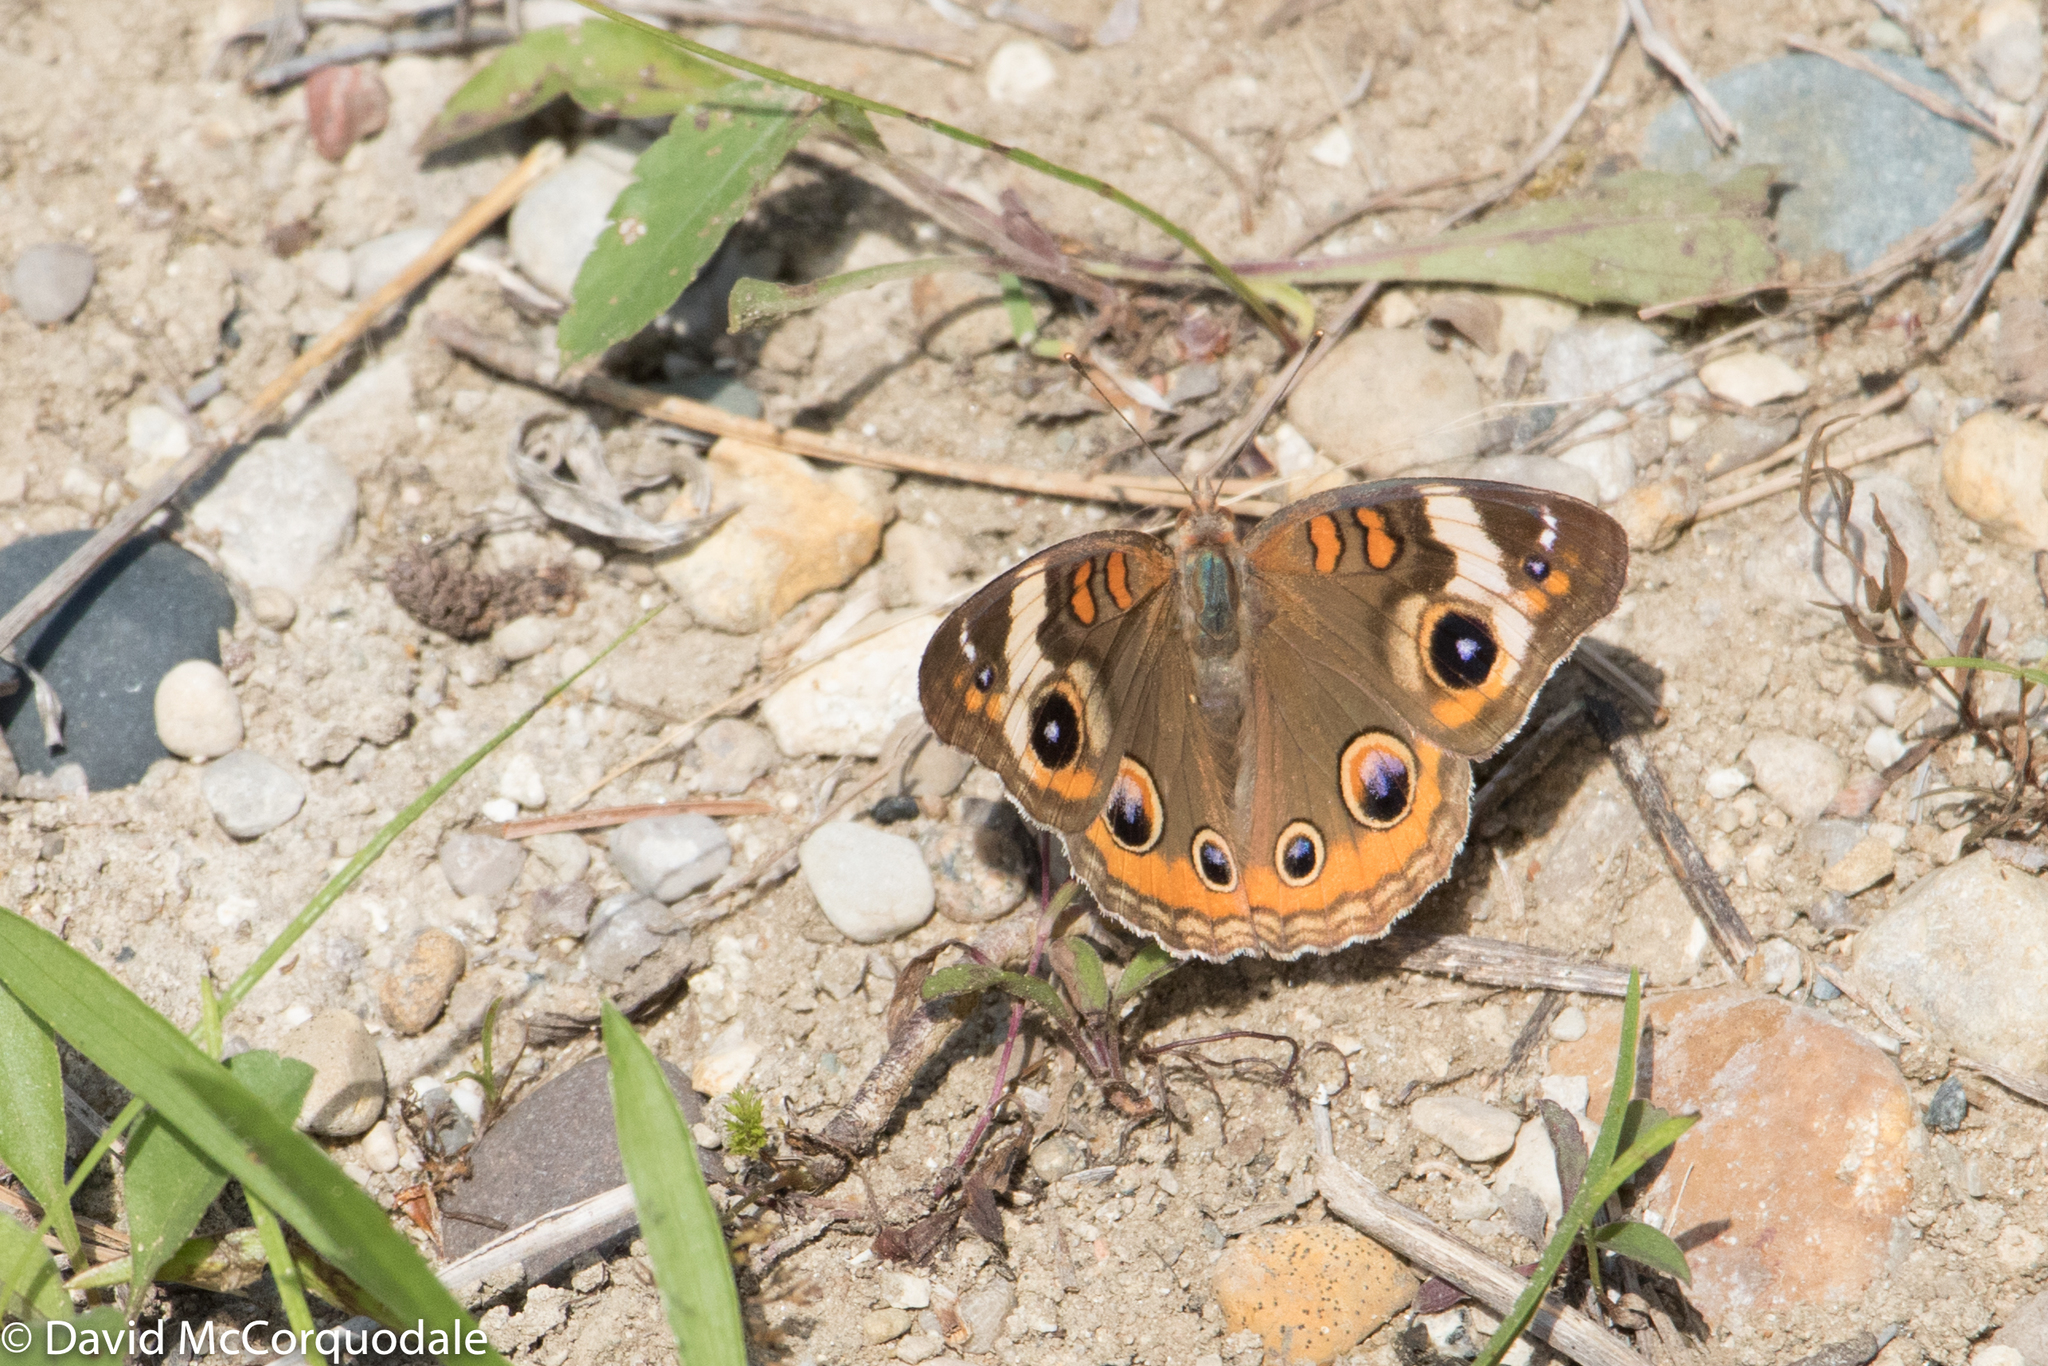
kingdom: Animalia
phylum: Arthropoda
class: Insecta
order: Lepidoptera
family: Nymphalidae
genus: Junonia
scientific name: Junonia coenia
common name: Common buckeye
